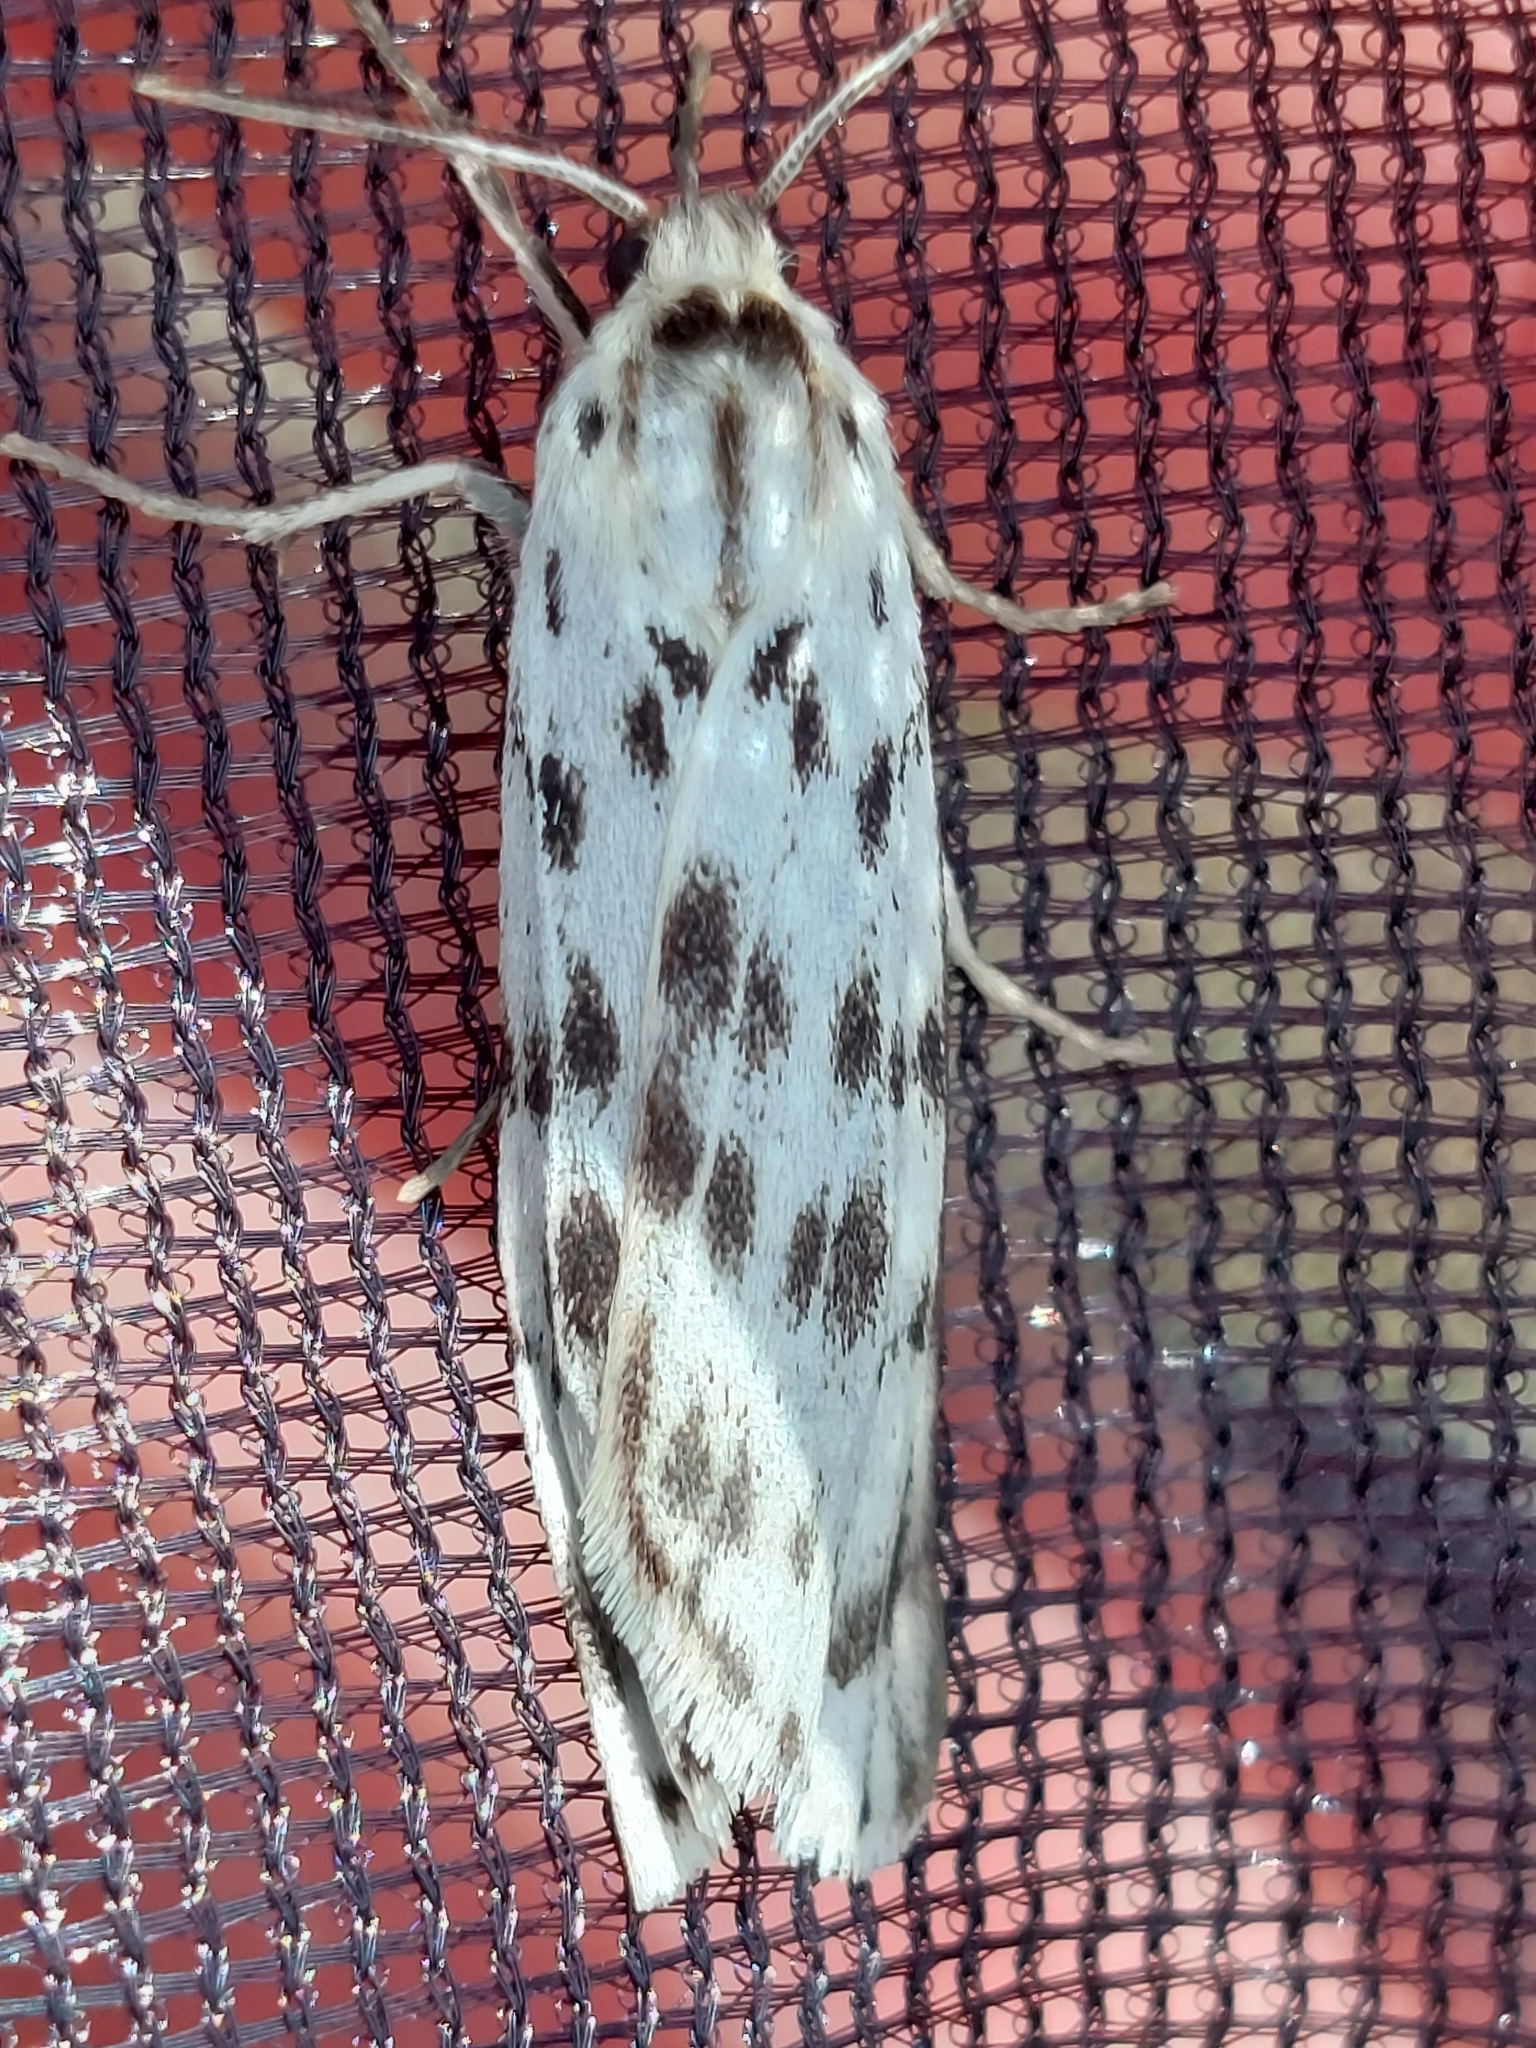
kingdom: Animalia
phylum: Arthropoda
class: Insecta
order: Lepidoptera
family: Erebidae
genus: Coscinia
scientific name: Coscinia cribraria
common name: Speckled footman
